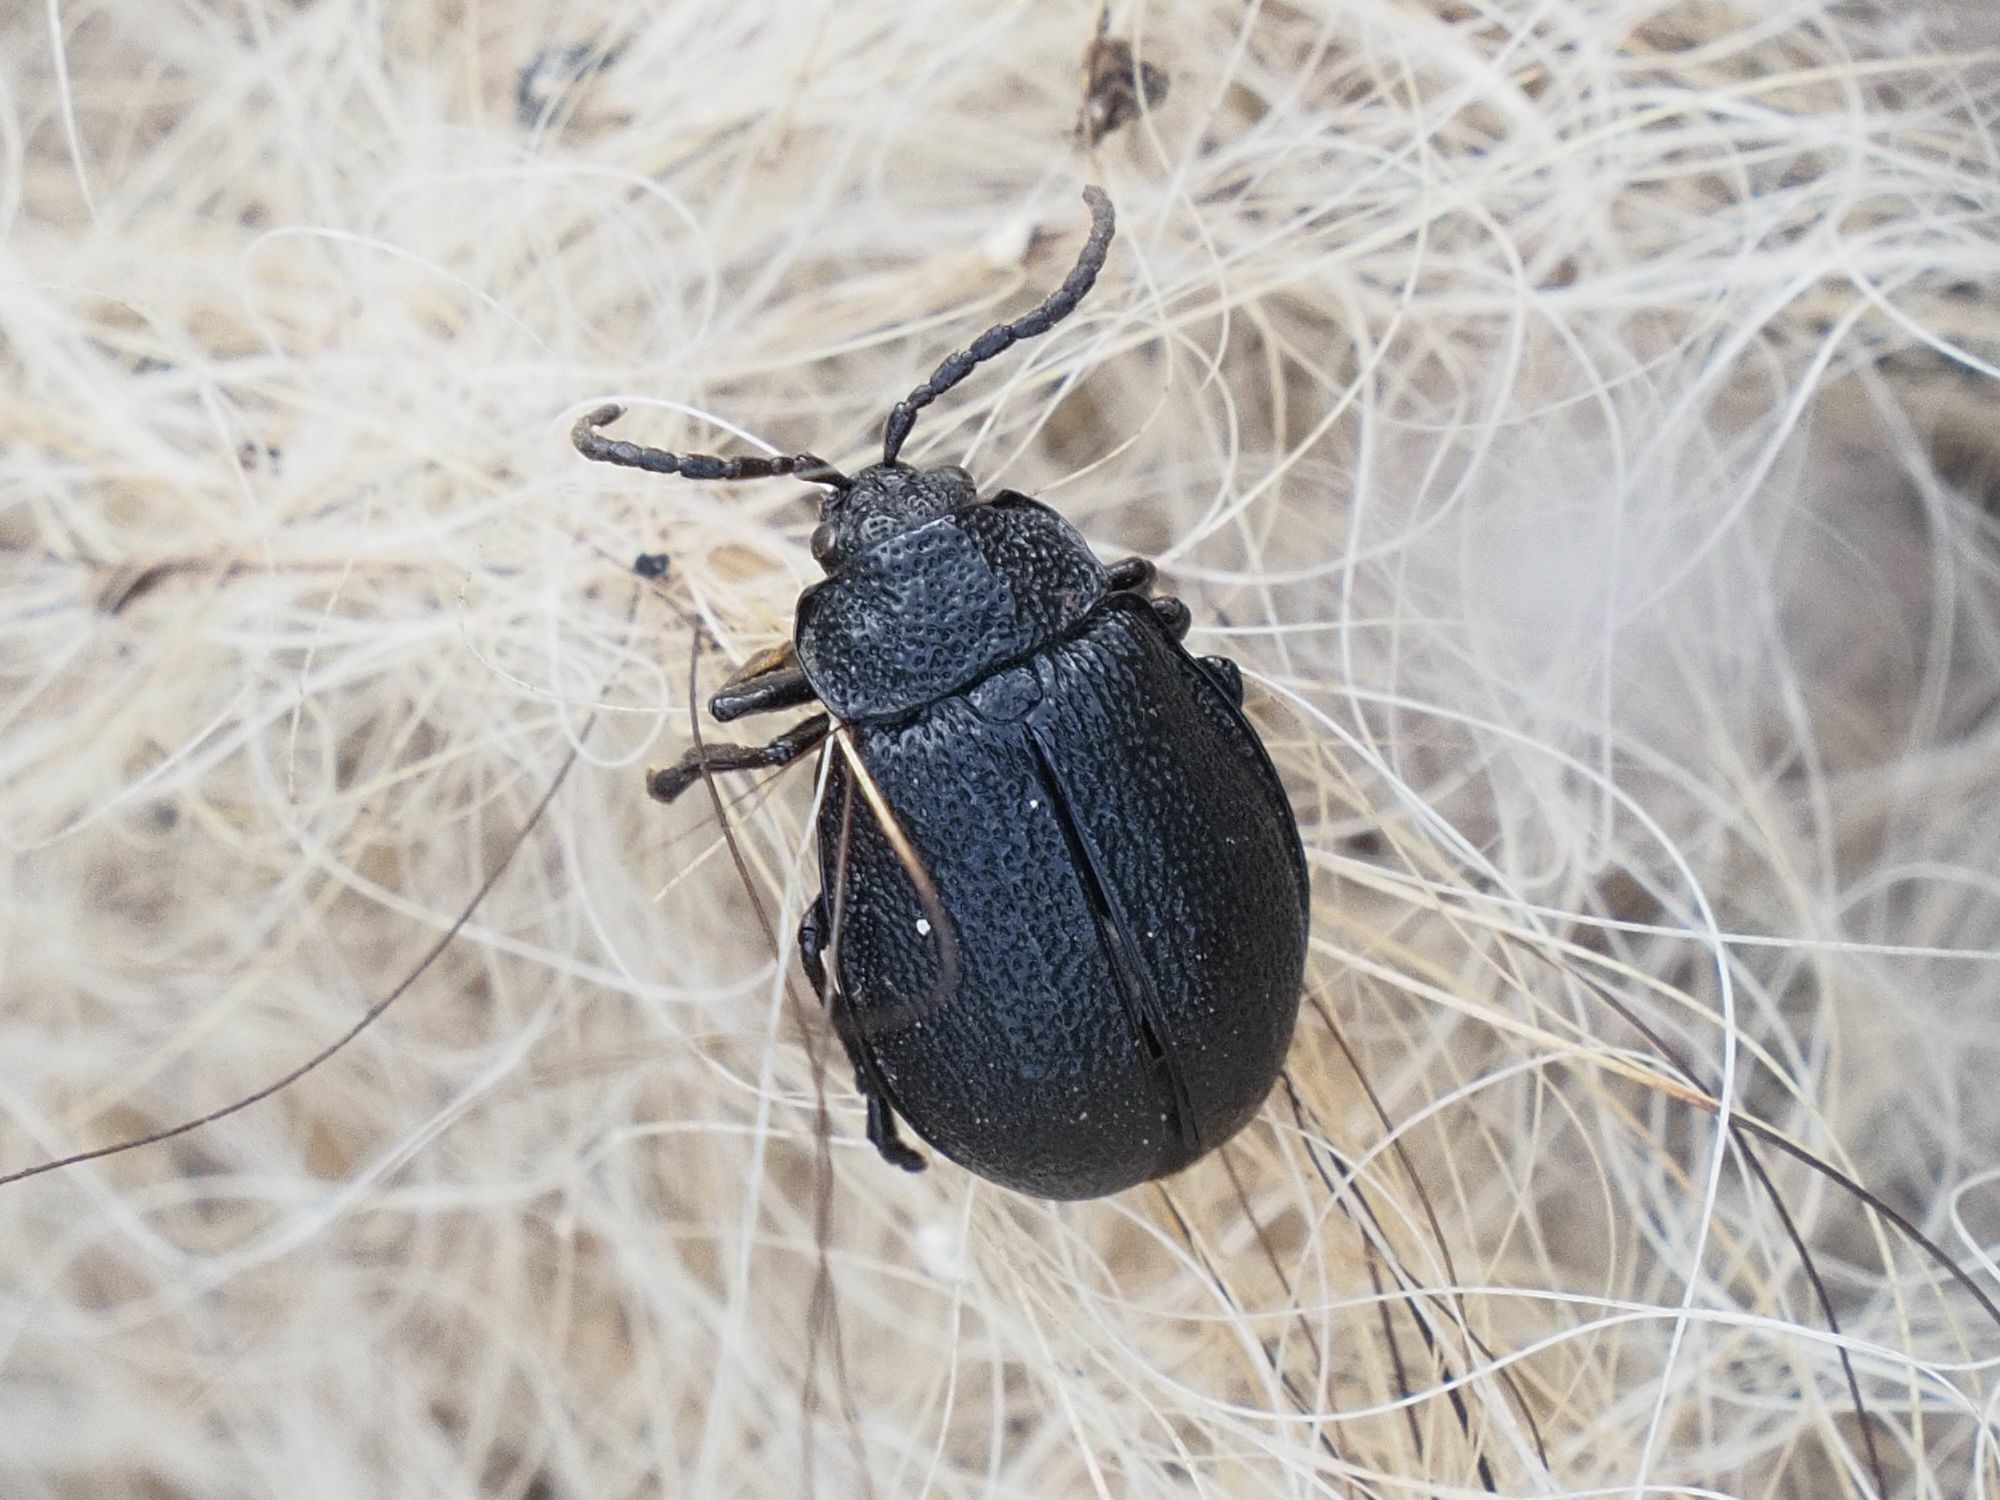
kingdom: Animalia
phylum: Arthropoda
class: Insecta
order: Coleoptera
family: Chrysomelidae
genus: Galeruca
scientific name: Galeruca tanaceti
